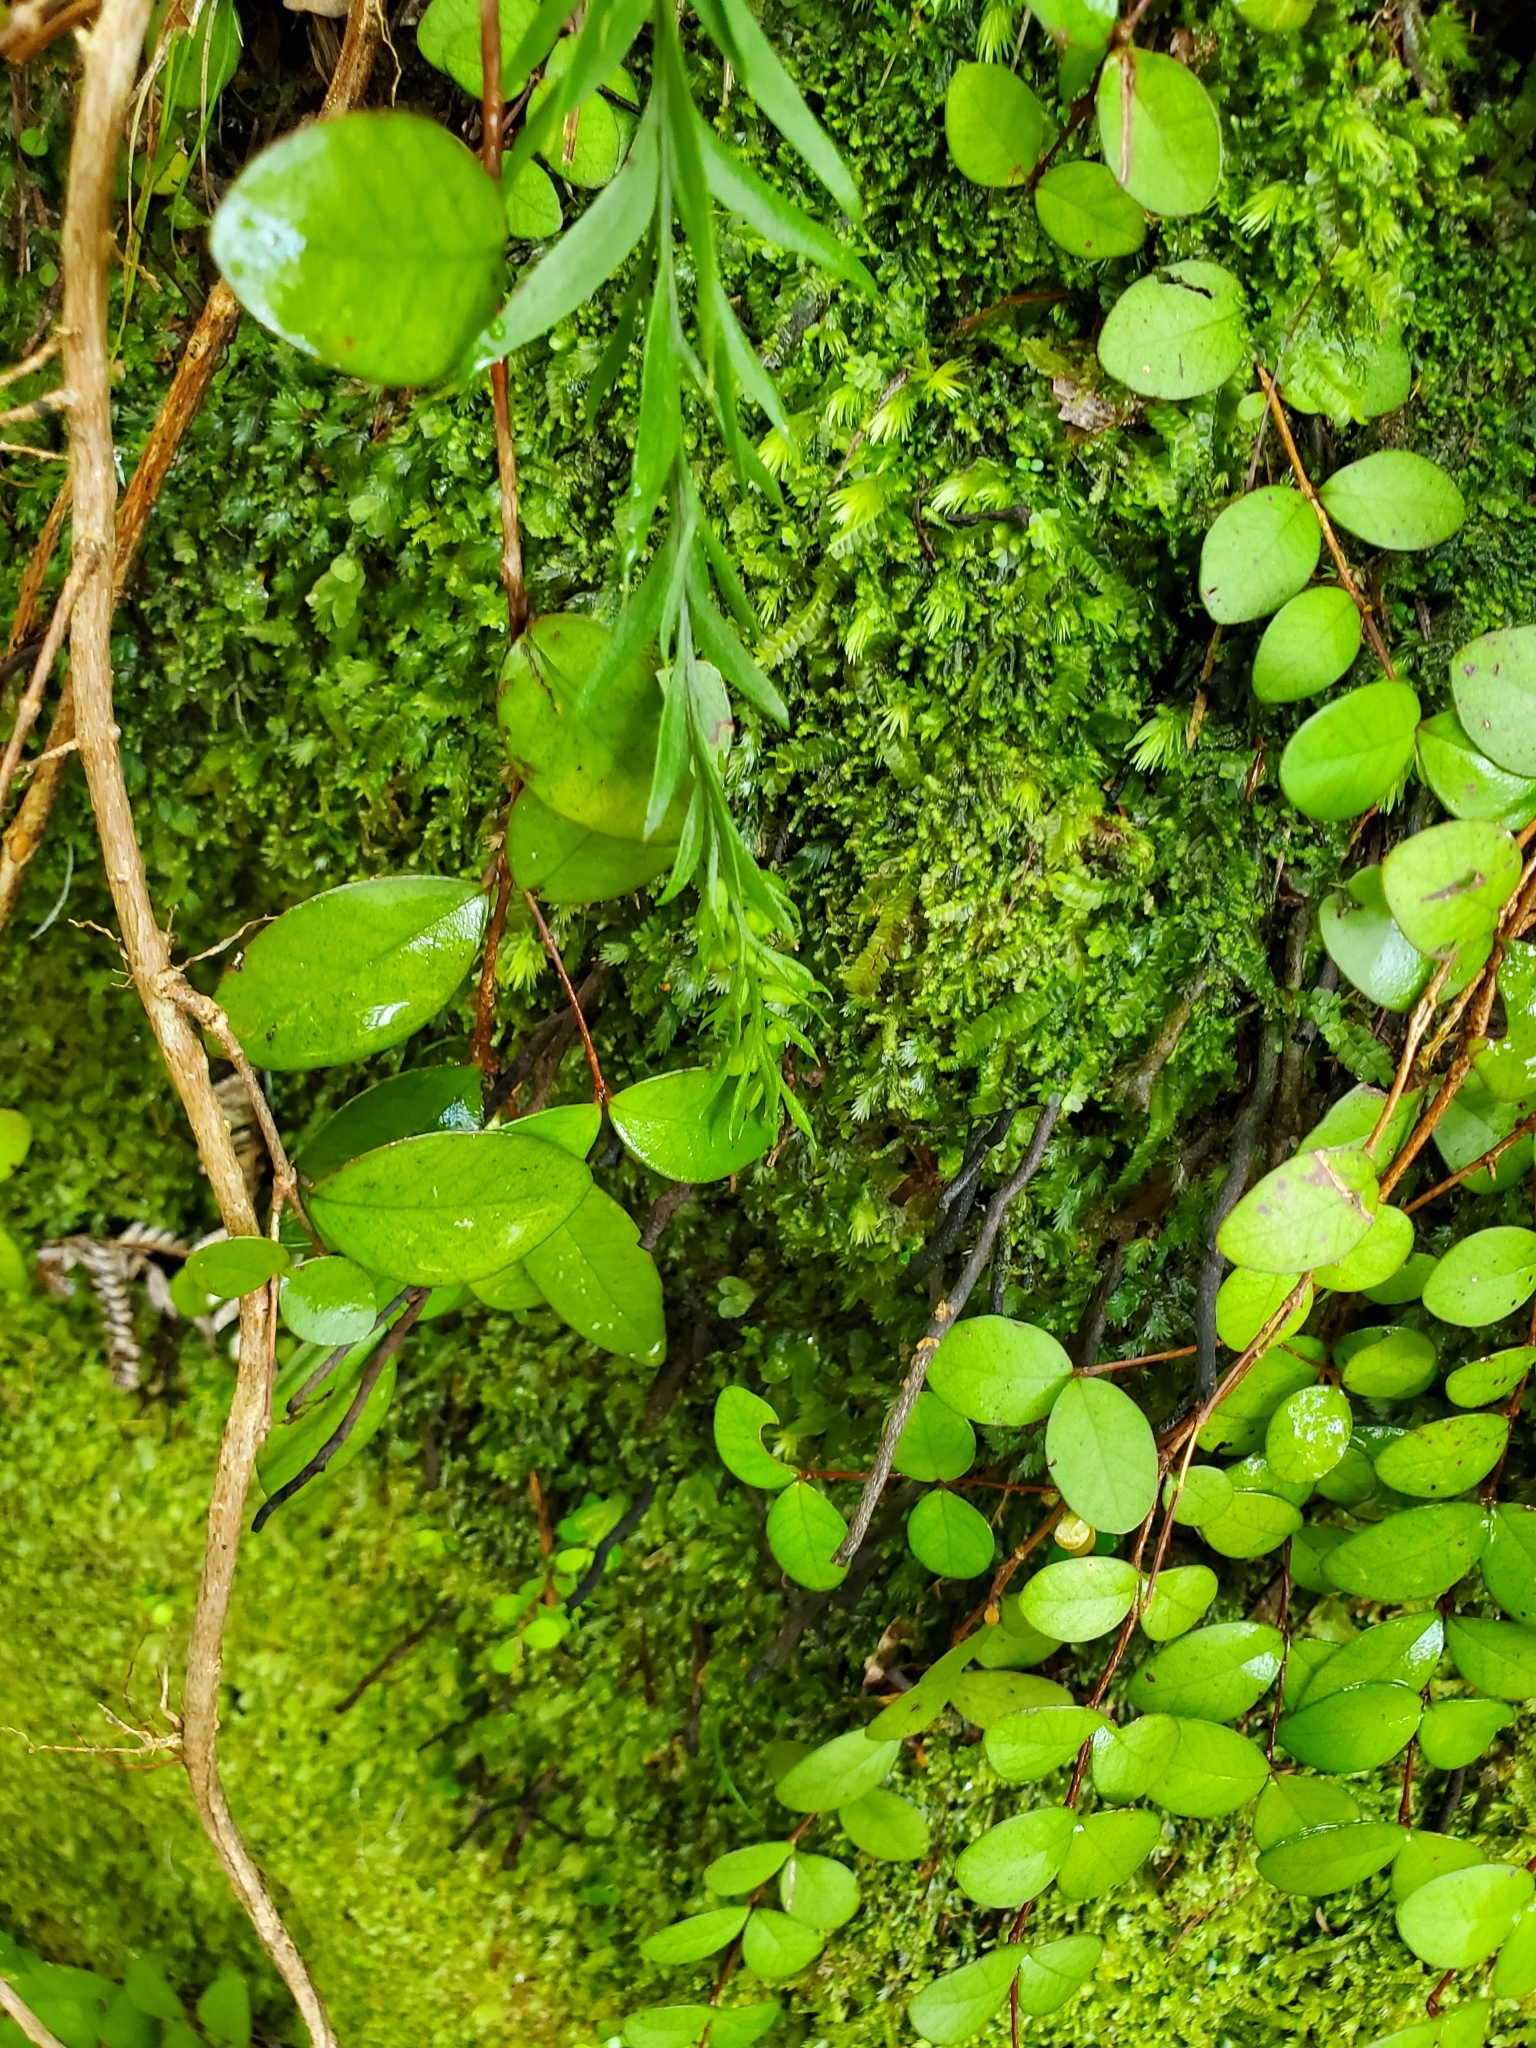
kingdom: Plantae
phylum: Tracheophyta
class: Polypodiopsida
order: Psilotales
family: Psilotaceae
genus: Tmesipteris
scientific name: Tmesipteris elongata
